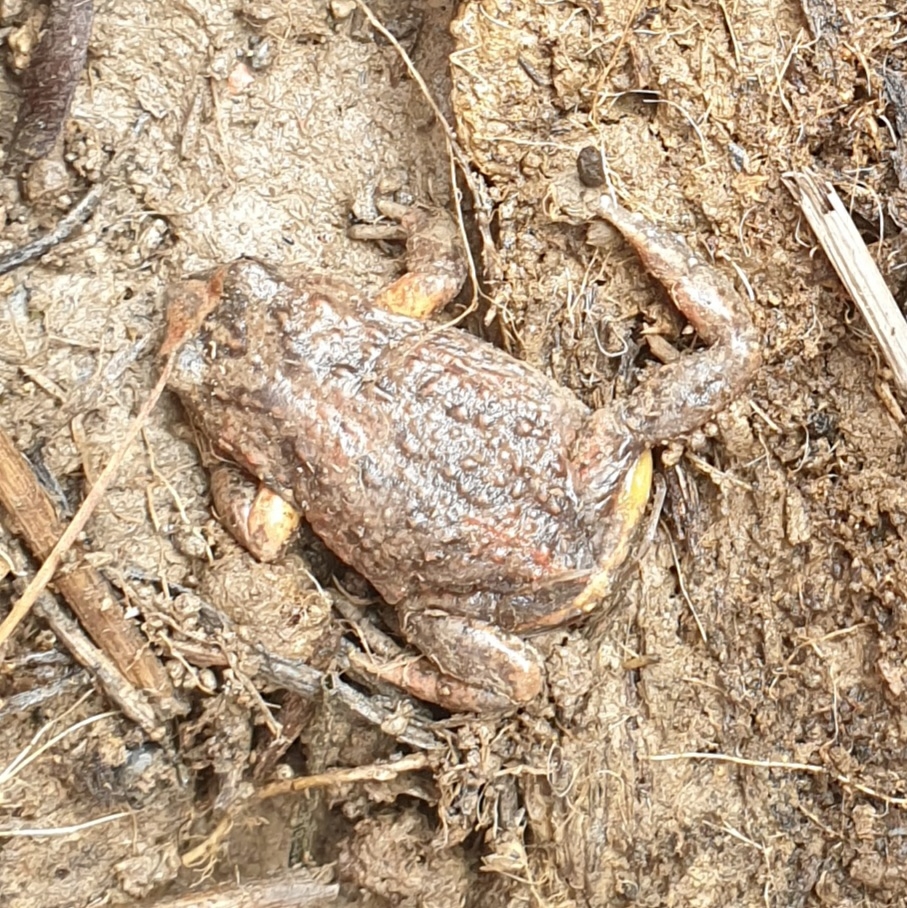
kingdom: Animalia
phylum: Chordata
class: Amphibia
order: Anura
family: Myobatrachidae
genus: Pseudophryne
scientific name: Pseudophryne bibronii
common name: Bibron’s toadlet
